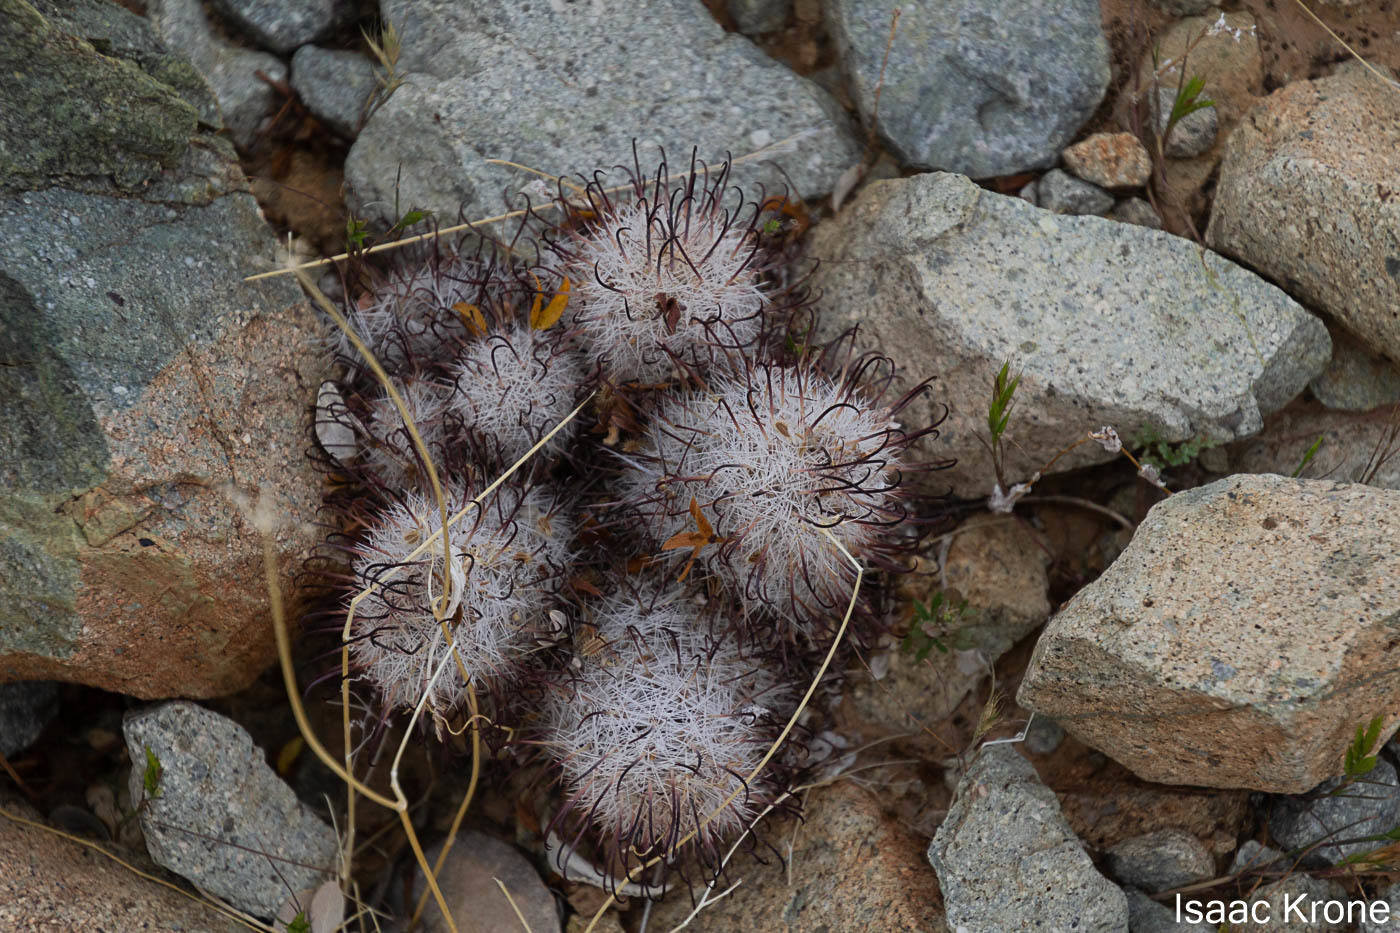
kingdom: Plantae
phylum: Tracheophyta
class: Magnoliopsida
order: Caryophyllales
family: Cactaceae
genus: Cochemiea
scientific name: Cochemiea grahamii
